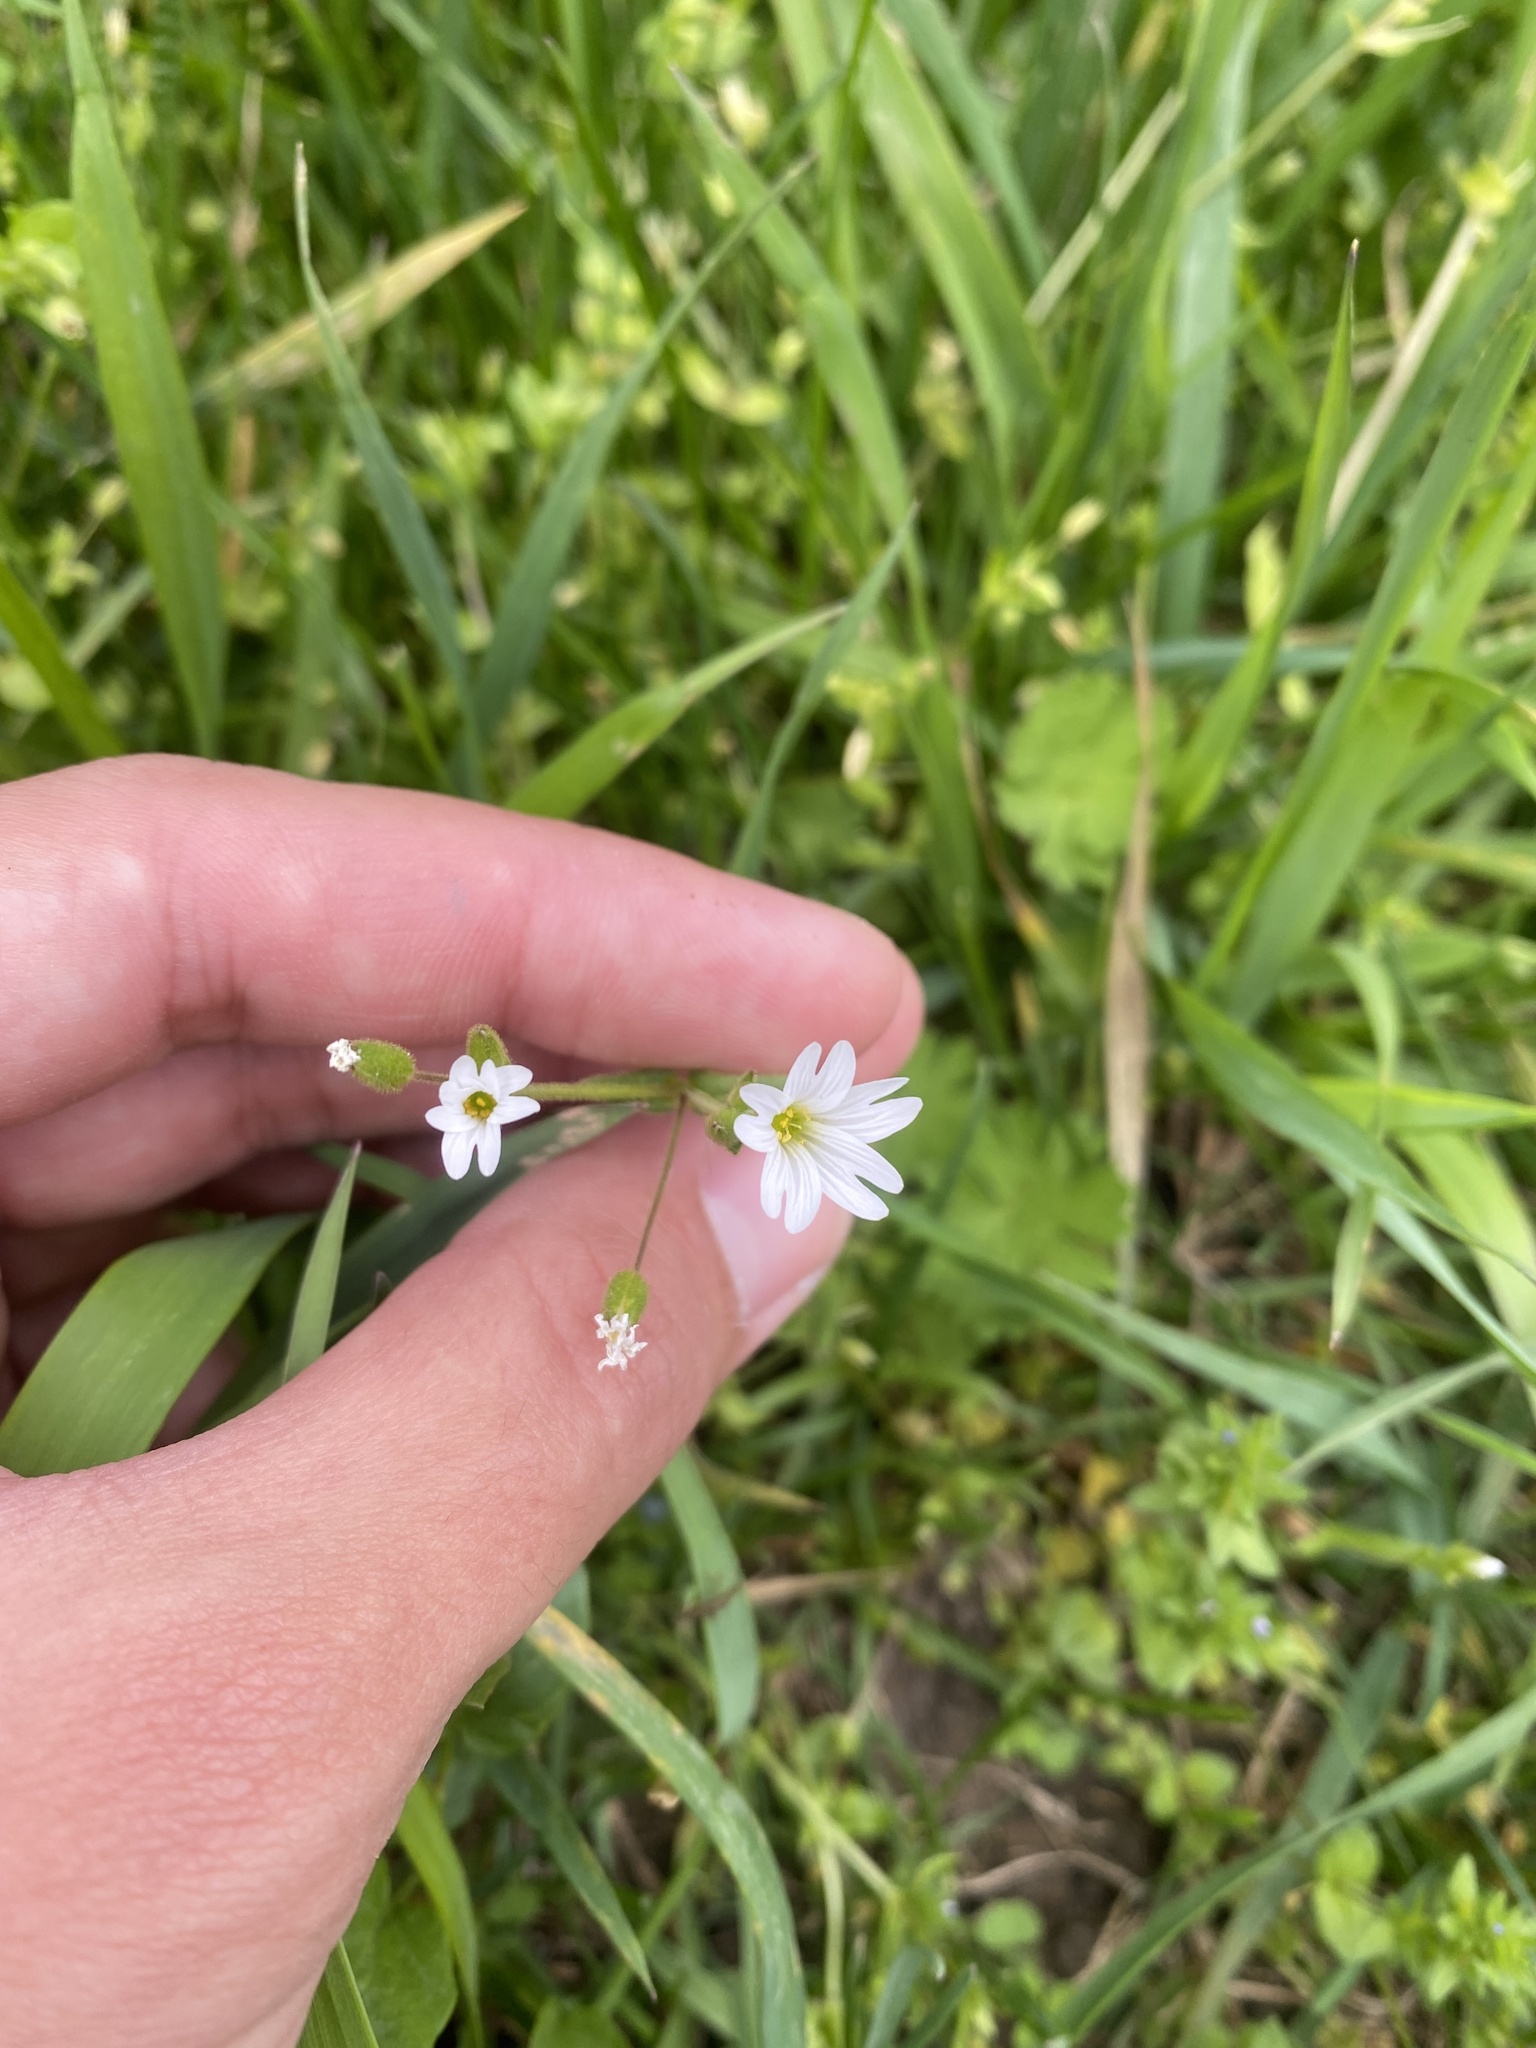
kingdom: Plantae
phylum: Tracheophyta
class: Magnoliopsida
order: Caryophyllales
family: Caryophyllaceae
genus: Dichodon
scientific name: Dichodon viscidum
